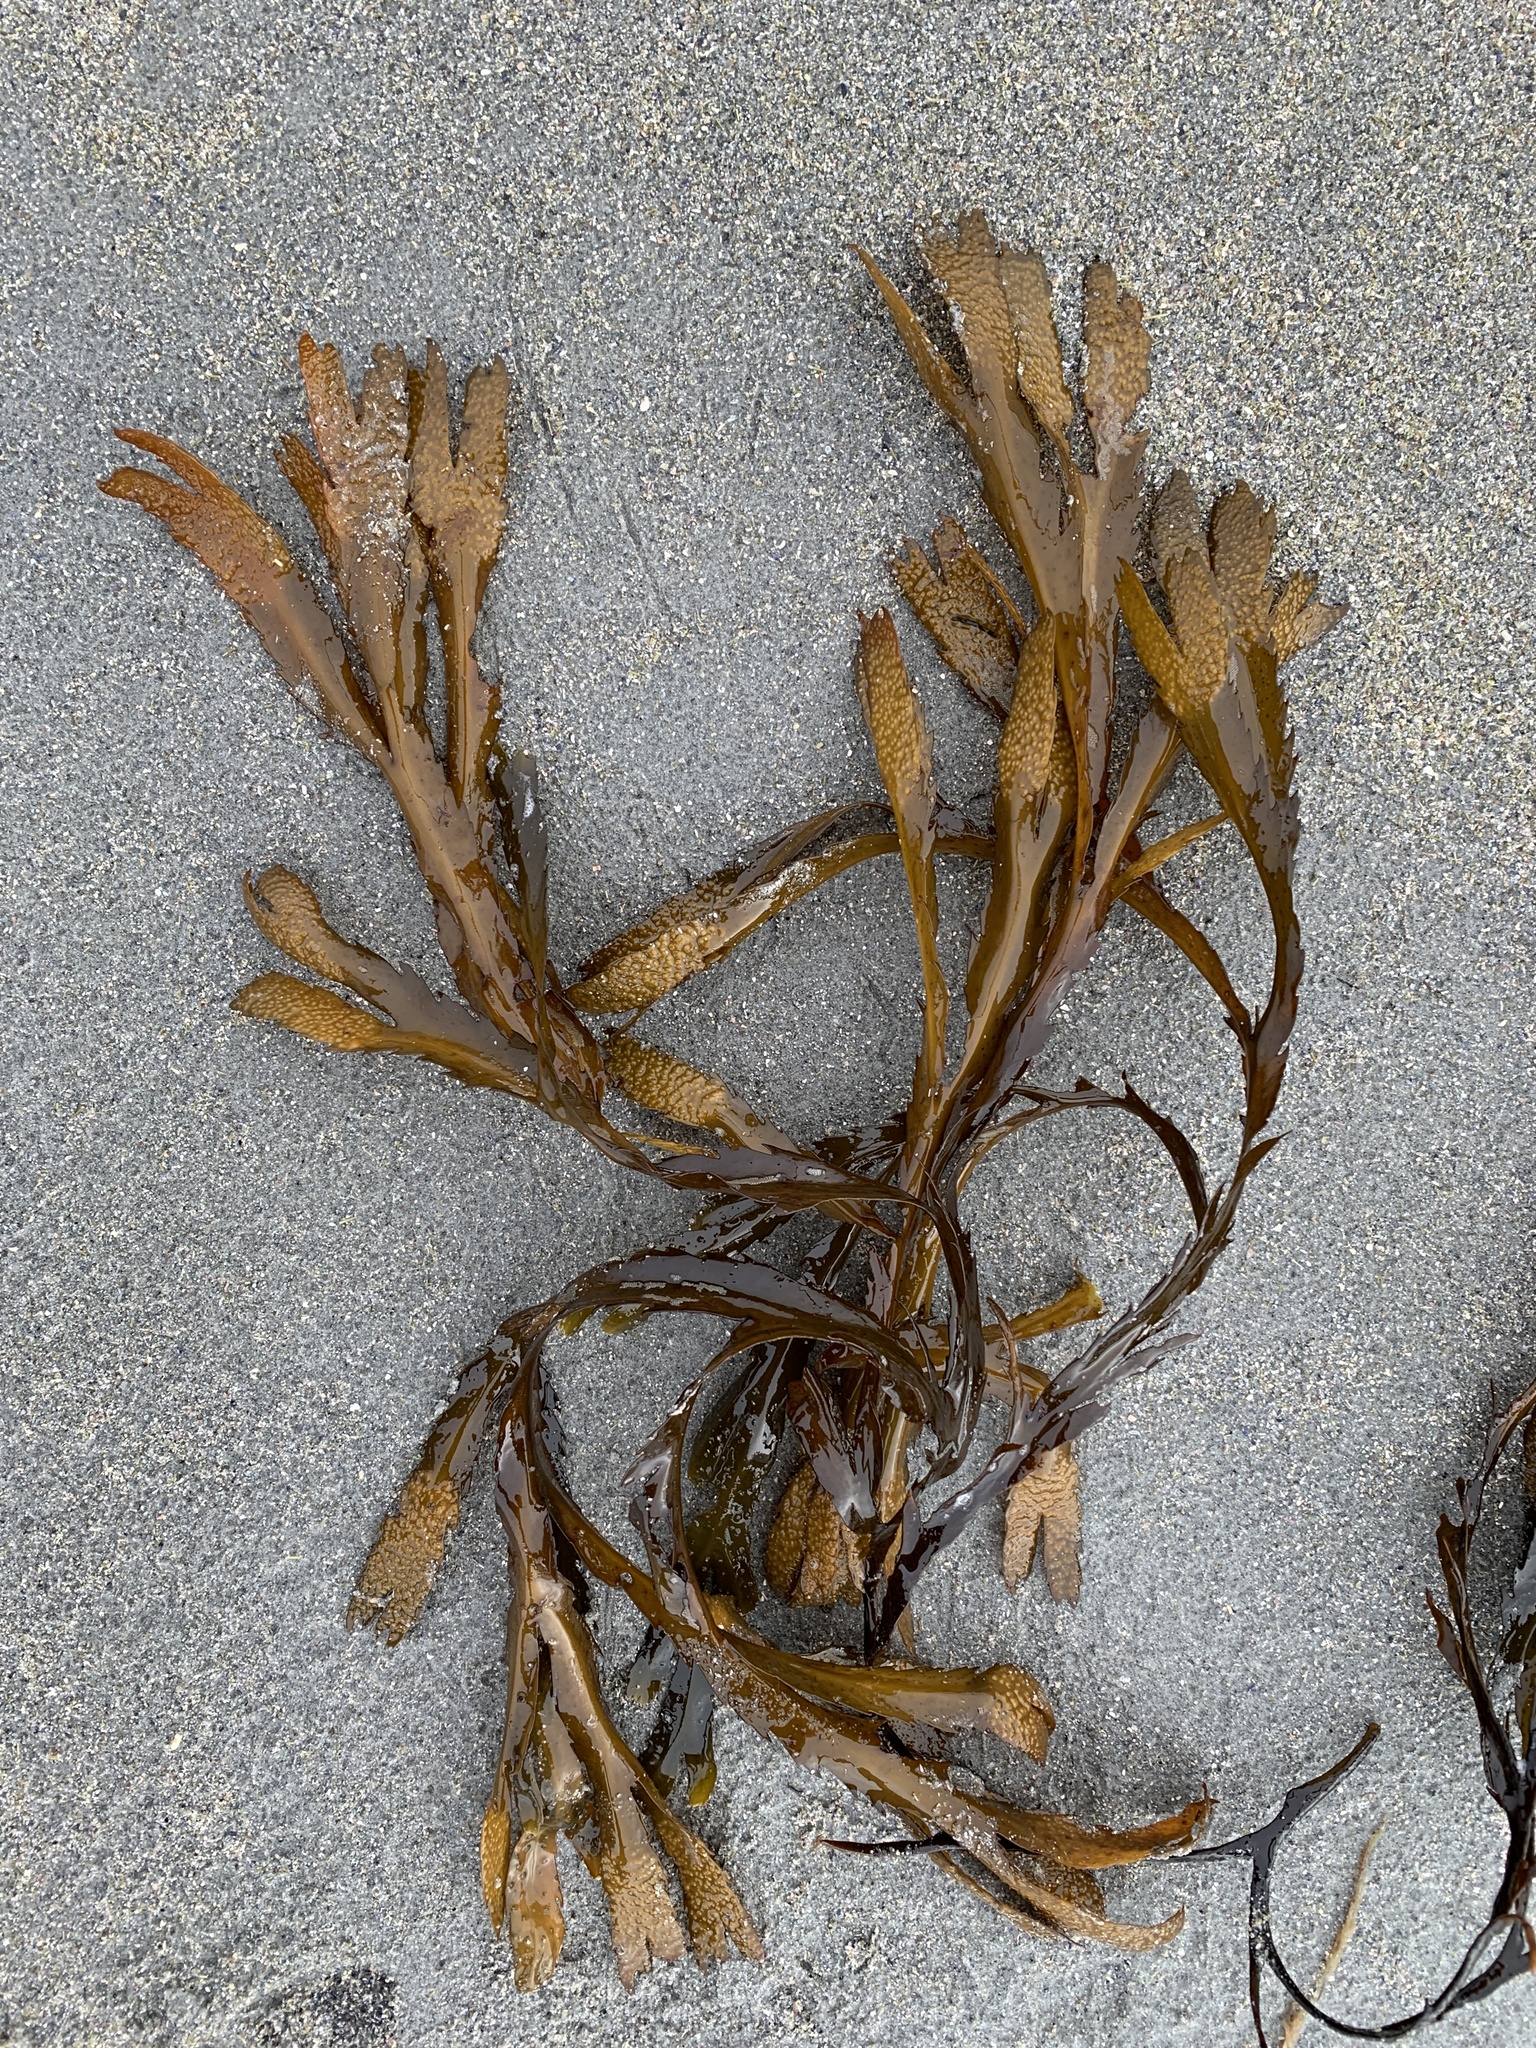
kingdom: Chromista
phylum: Ochrophyta
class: Phaeophyceae
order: Fucales
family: Fucaceae
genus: Fucus
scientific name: Fucus serratus
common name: Toothed wrack
